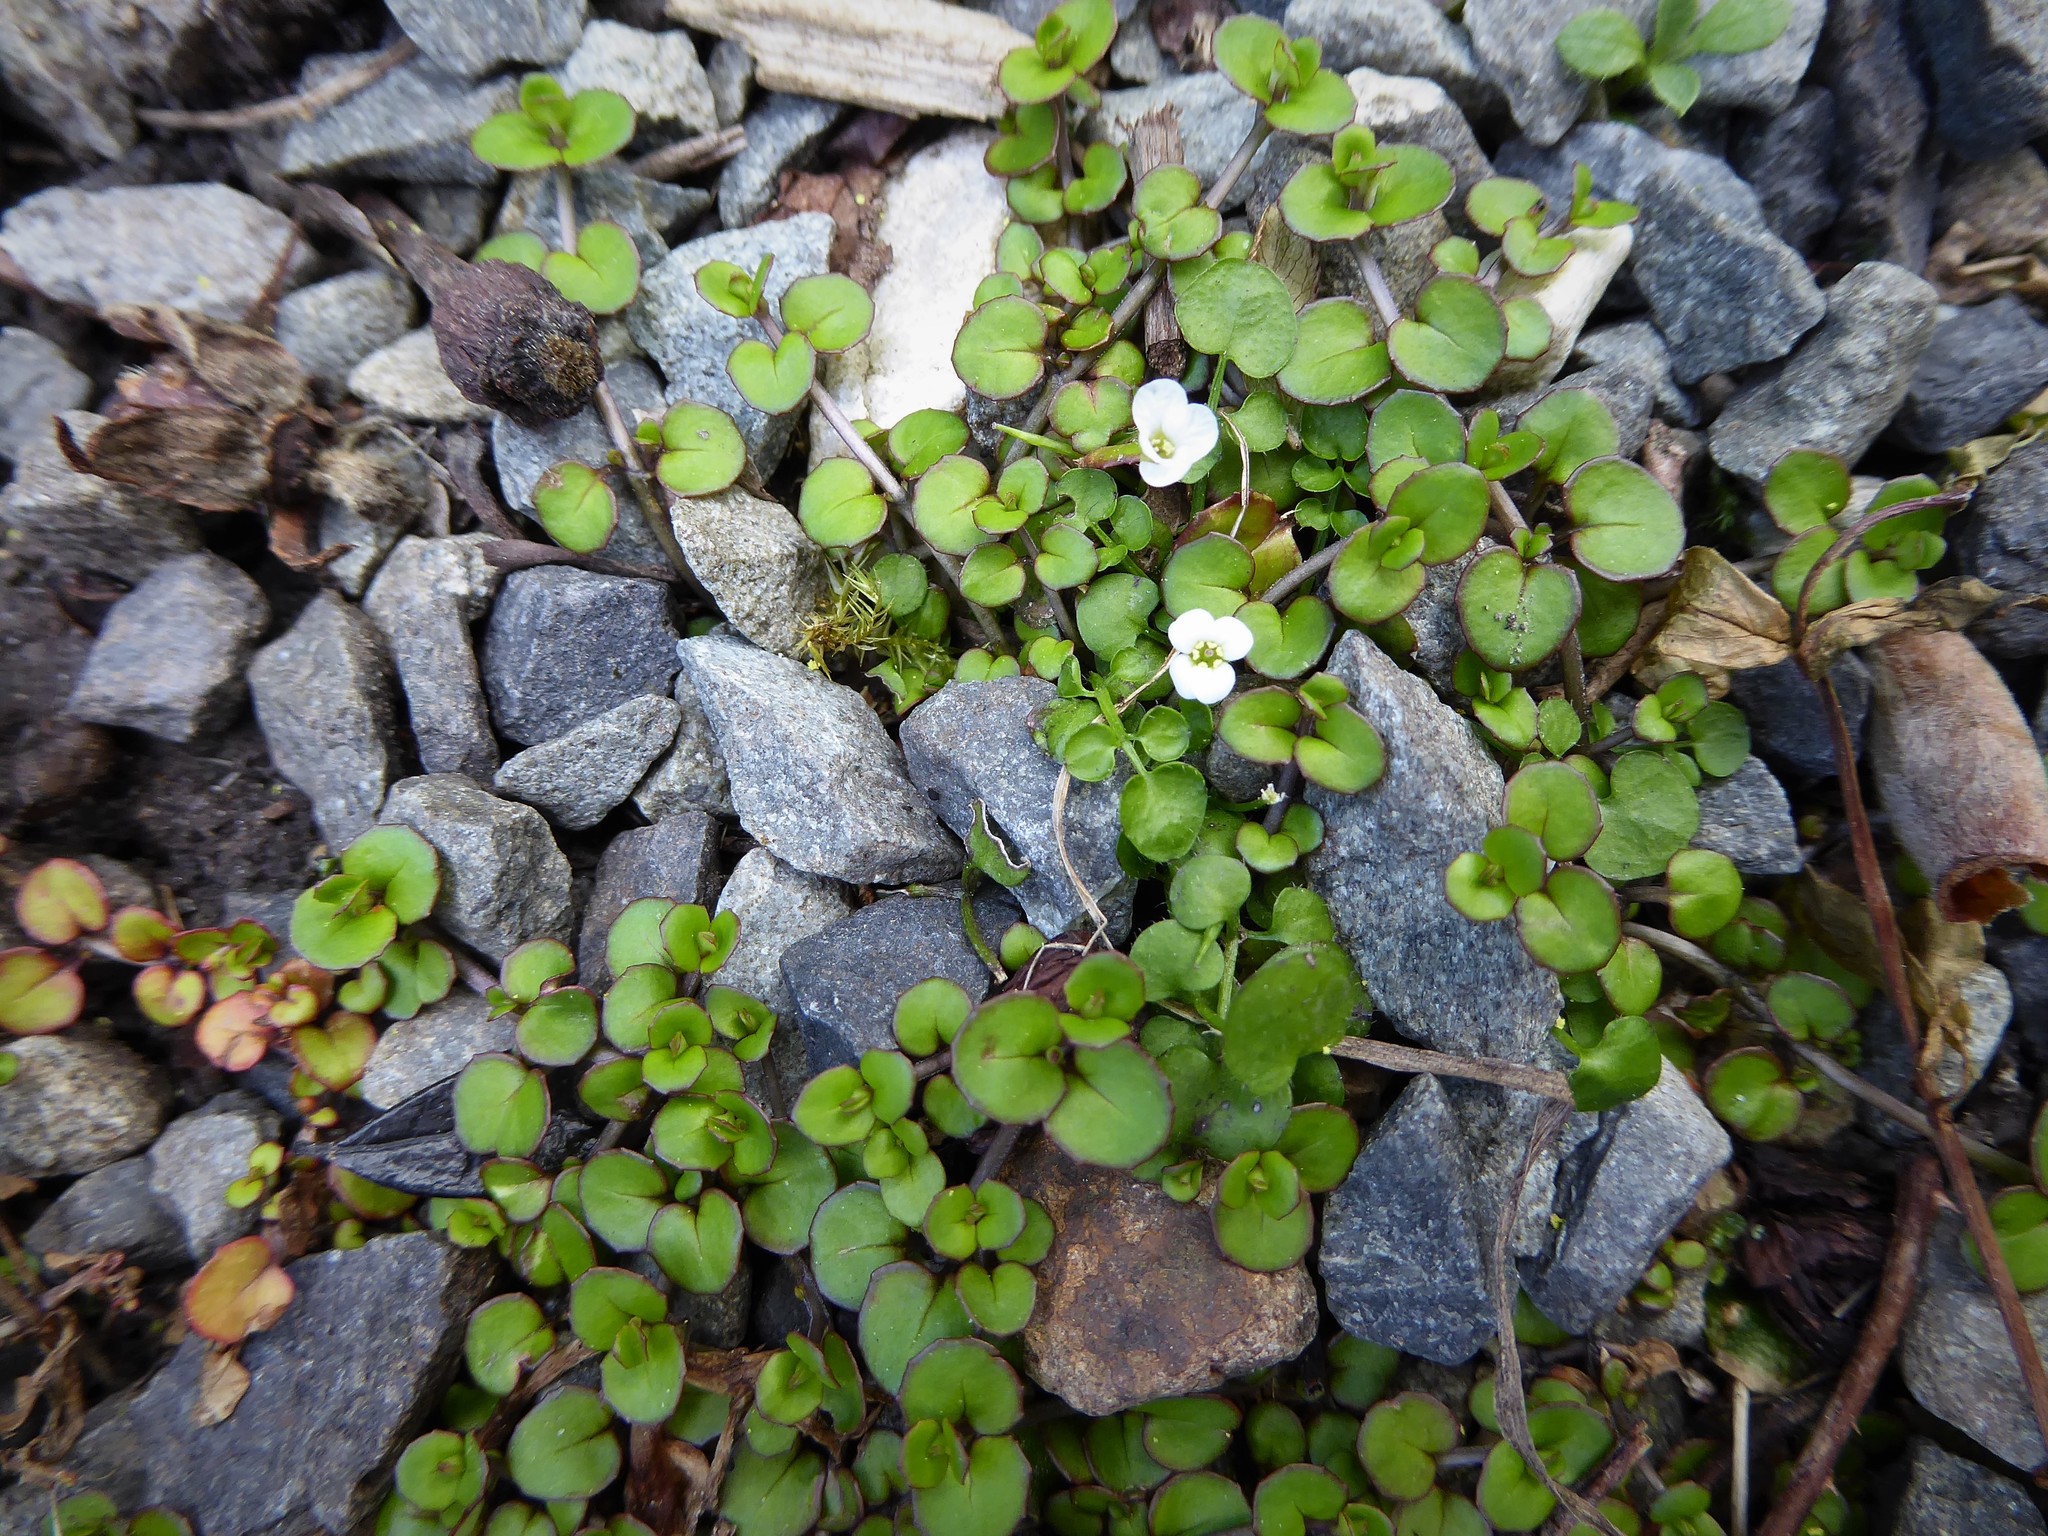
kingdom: Plantae
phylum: Tracheophyta
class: Magnoliopsida
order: Myrtales
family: Onagraceae
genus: Epilobium
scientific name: Epilobium nummularifolium
